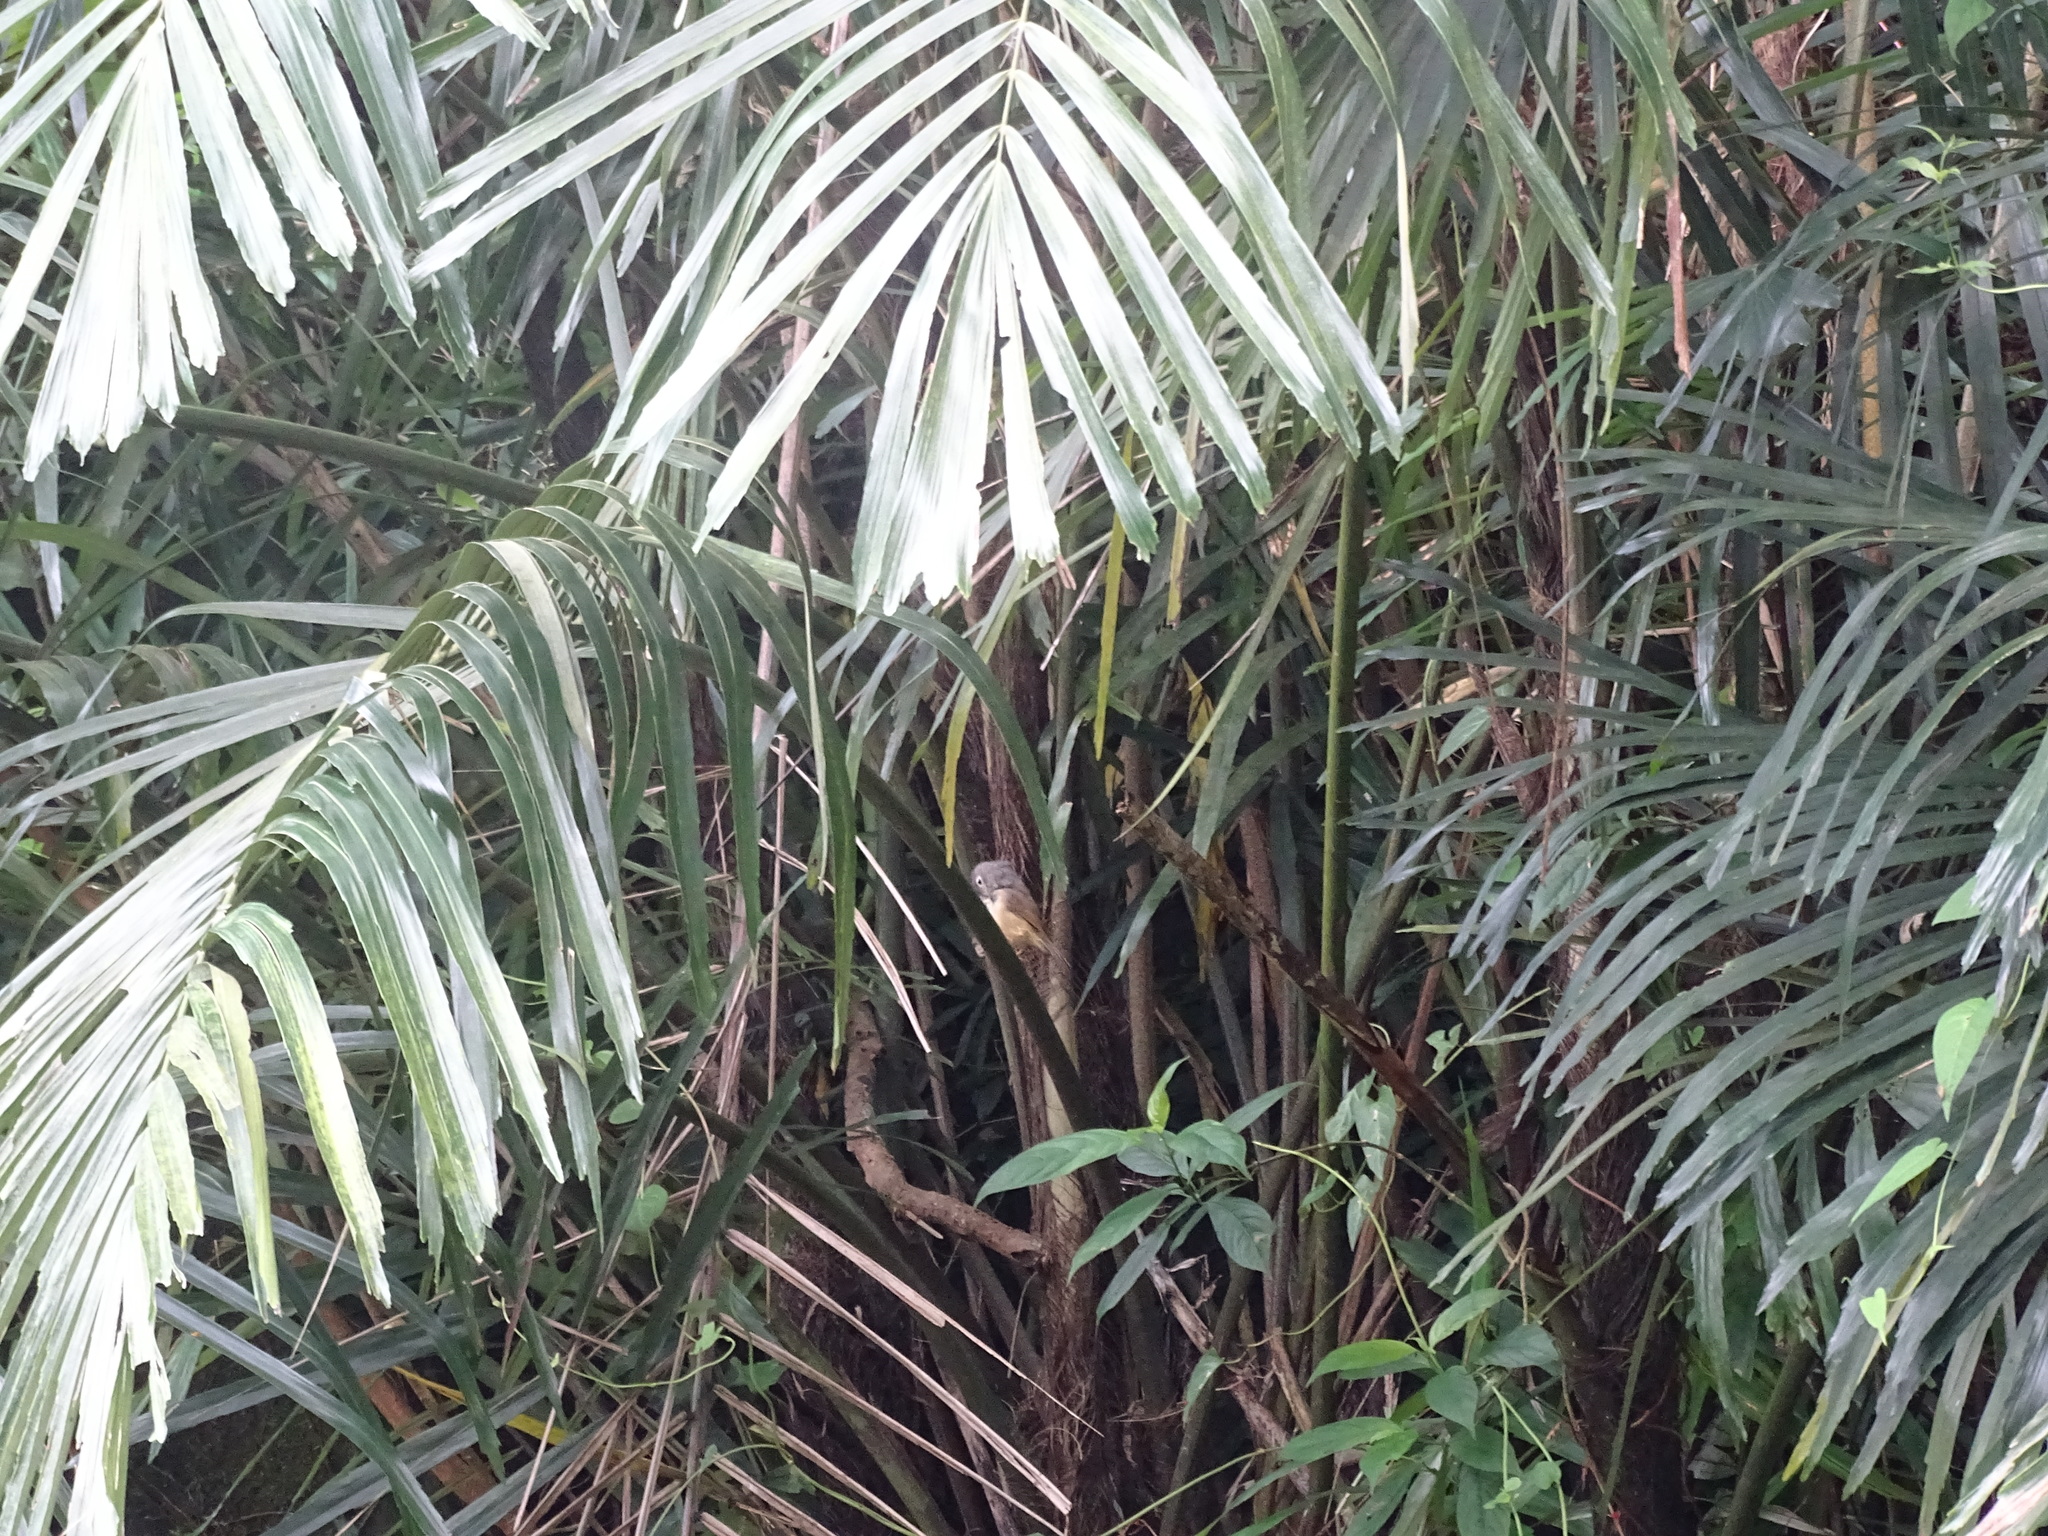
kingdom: Animalia
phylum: Chordata
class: Aves
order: Passeriformes
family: Pellorneidae
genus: Alcippe
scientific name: Alcippe morrisonia
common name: Grey-cheeked fulvetta
